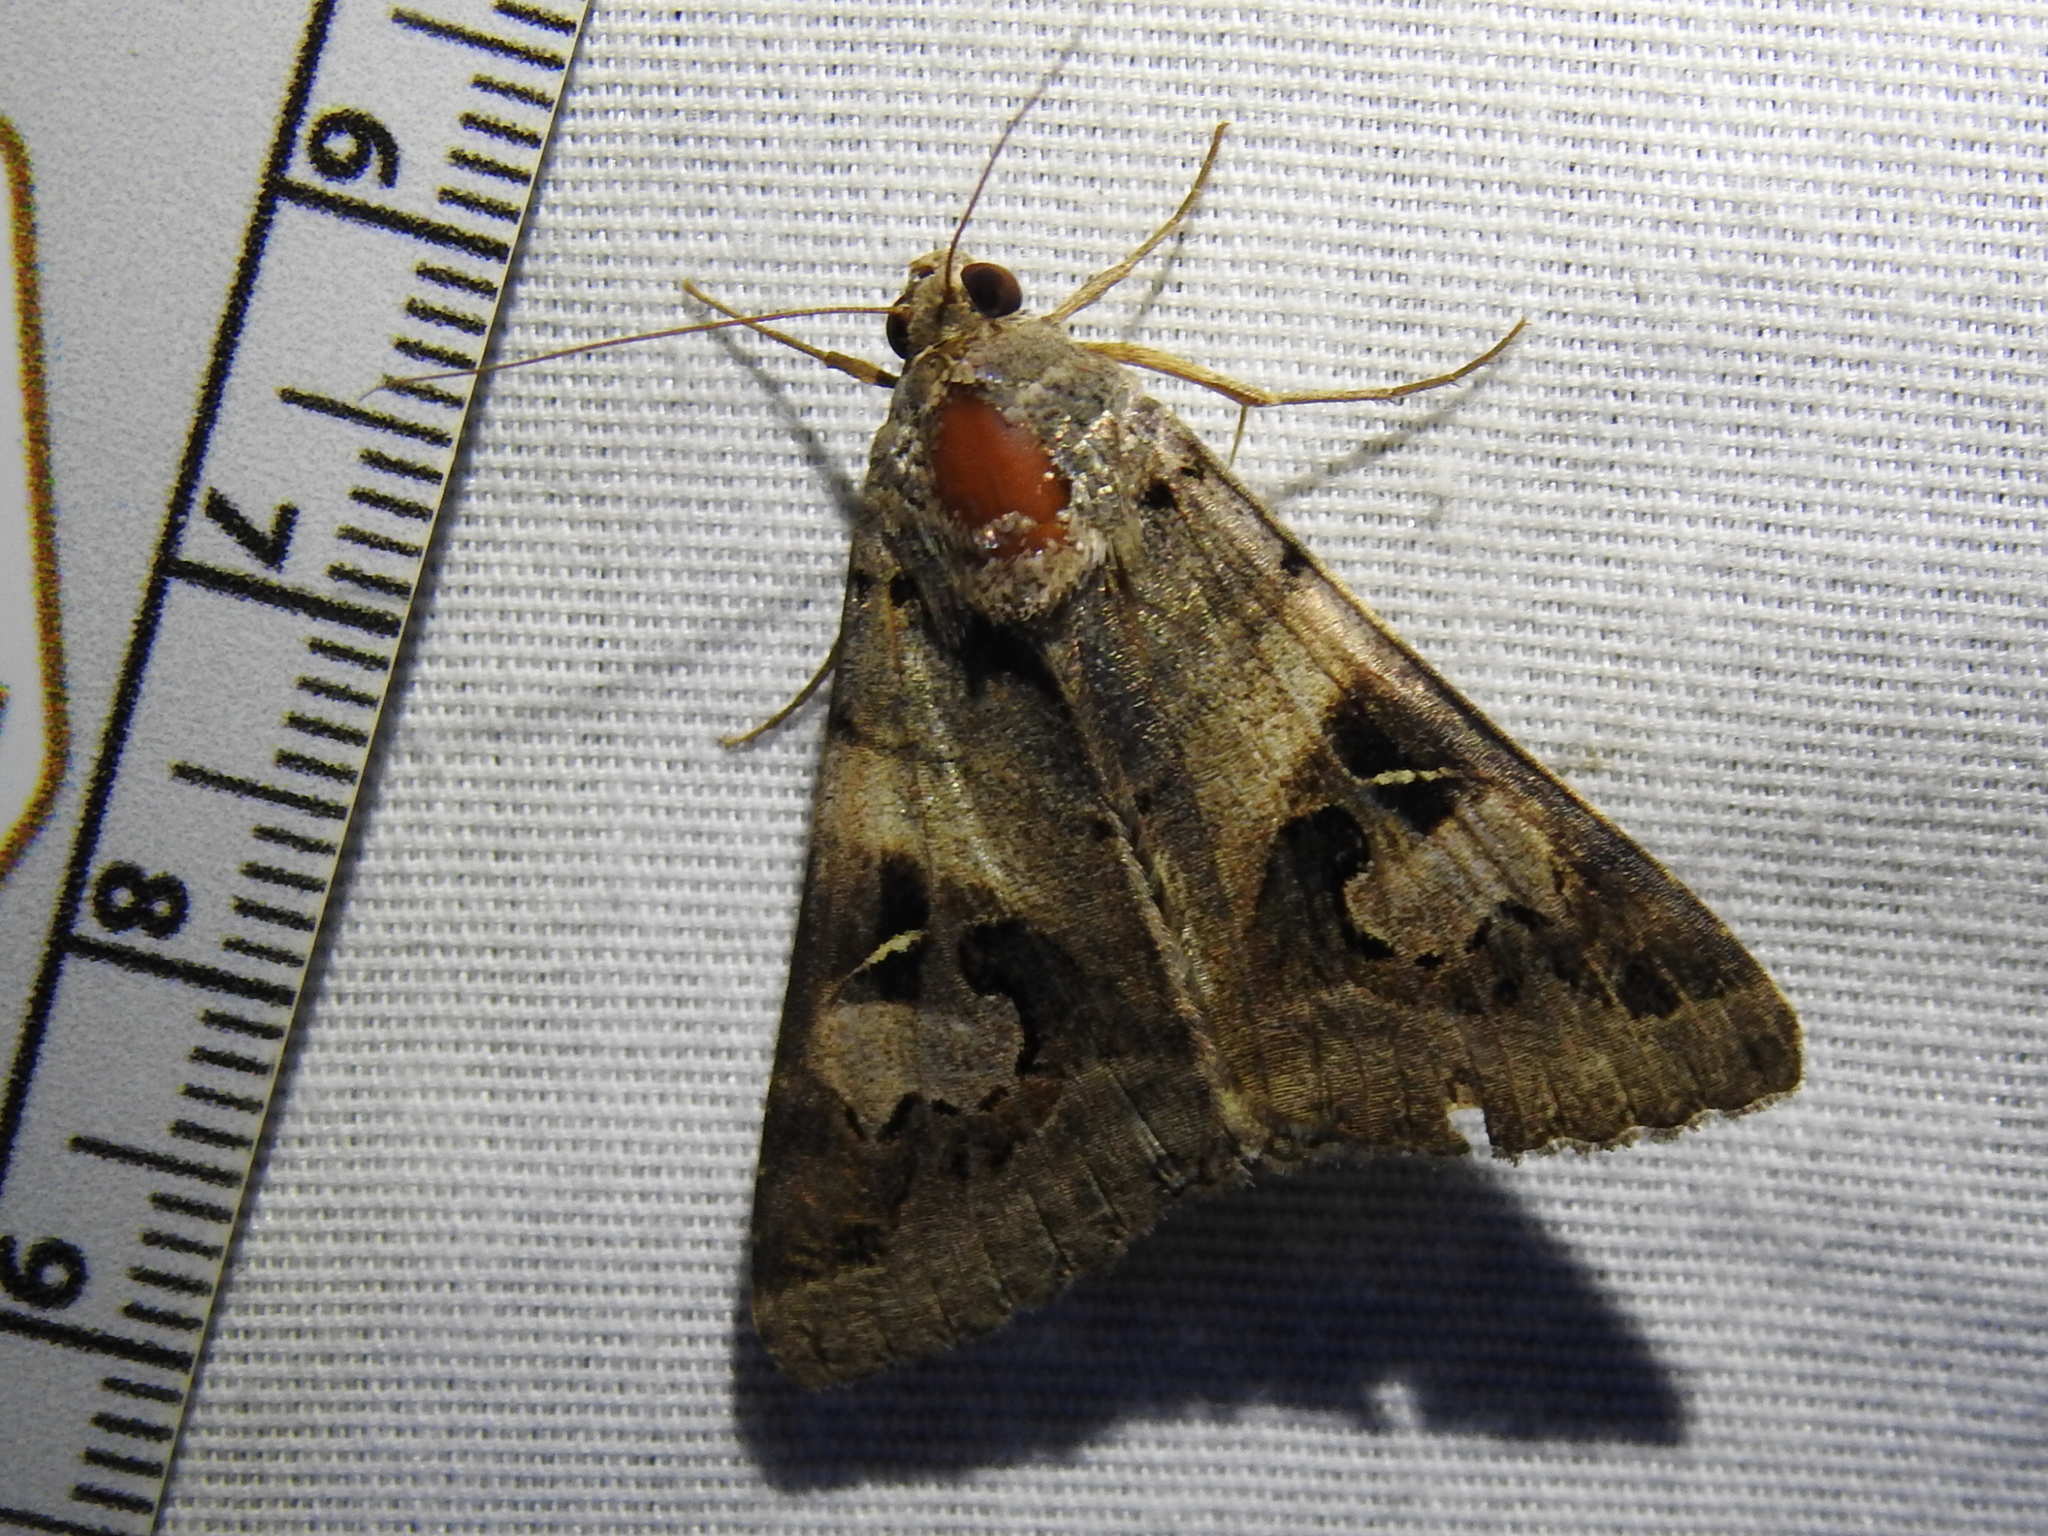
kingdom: Animalia
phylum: Arthropoda
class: Insecta
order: Lepidoptera
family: Erebidae
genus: Melipotis
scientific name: Melipotis indomita
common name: Moth
